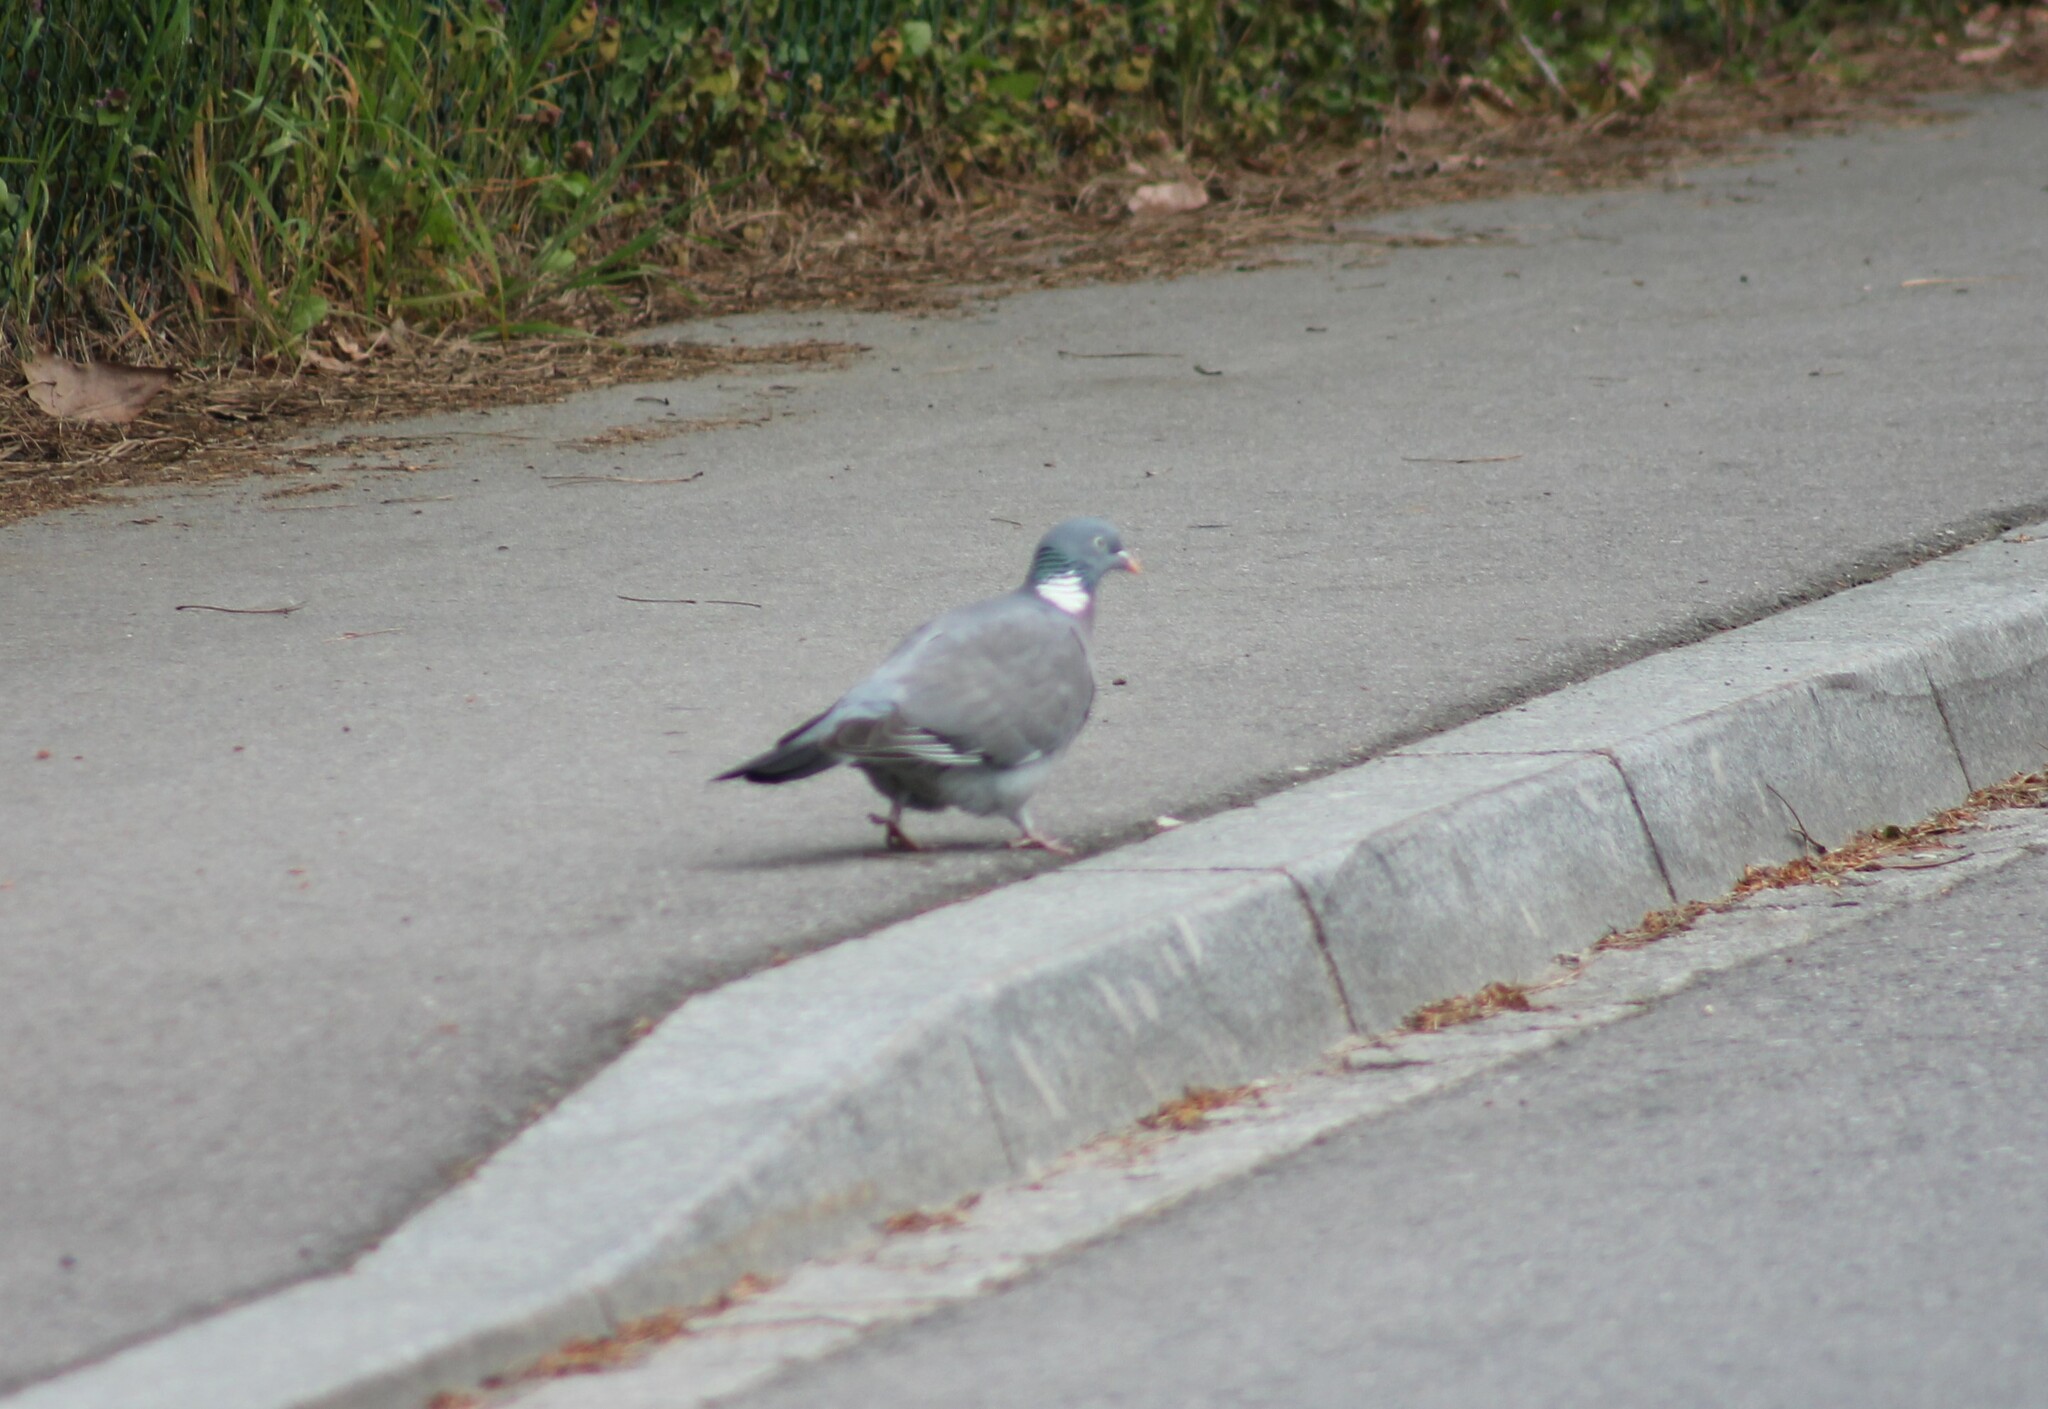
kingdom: Animalia
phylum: Chordata
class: Aves
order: Columbiformes
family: Columbidae
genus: Columba
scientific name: Columba palumbus
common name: Common wood pigeon
